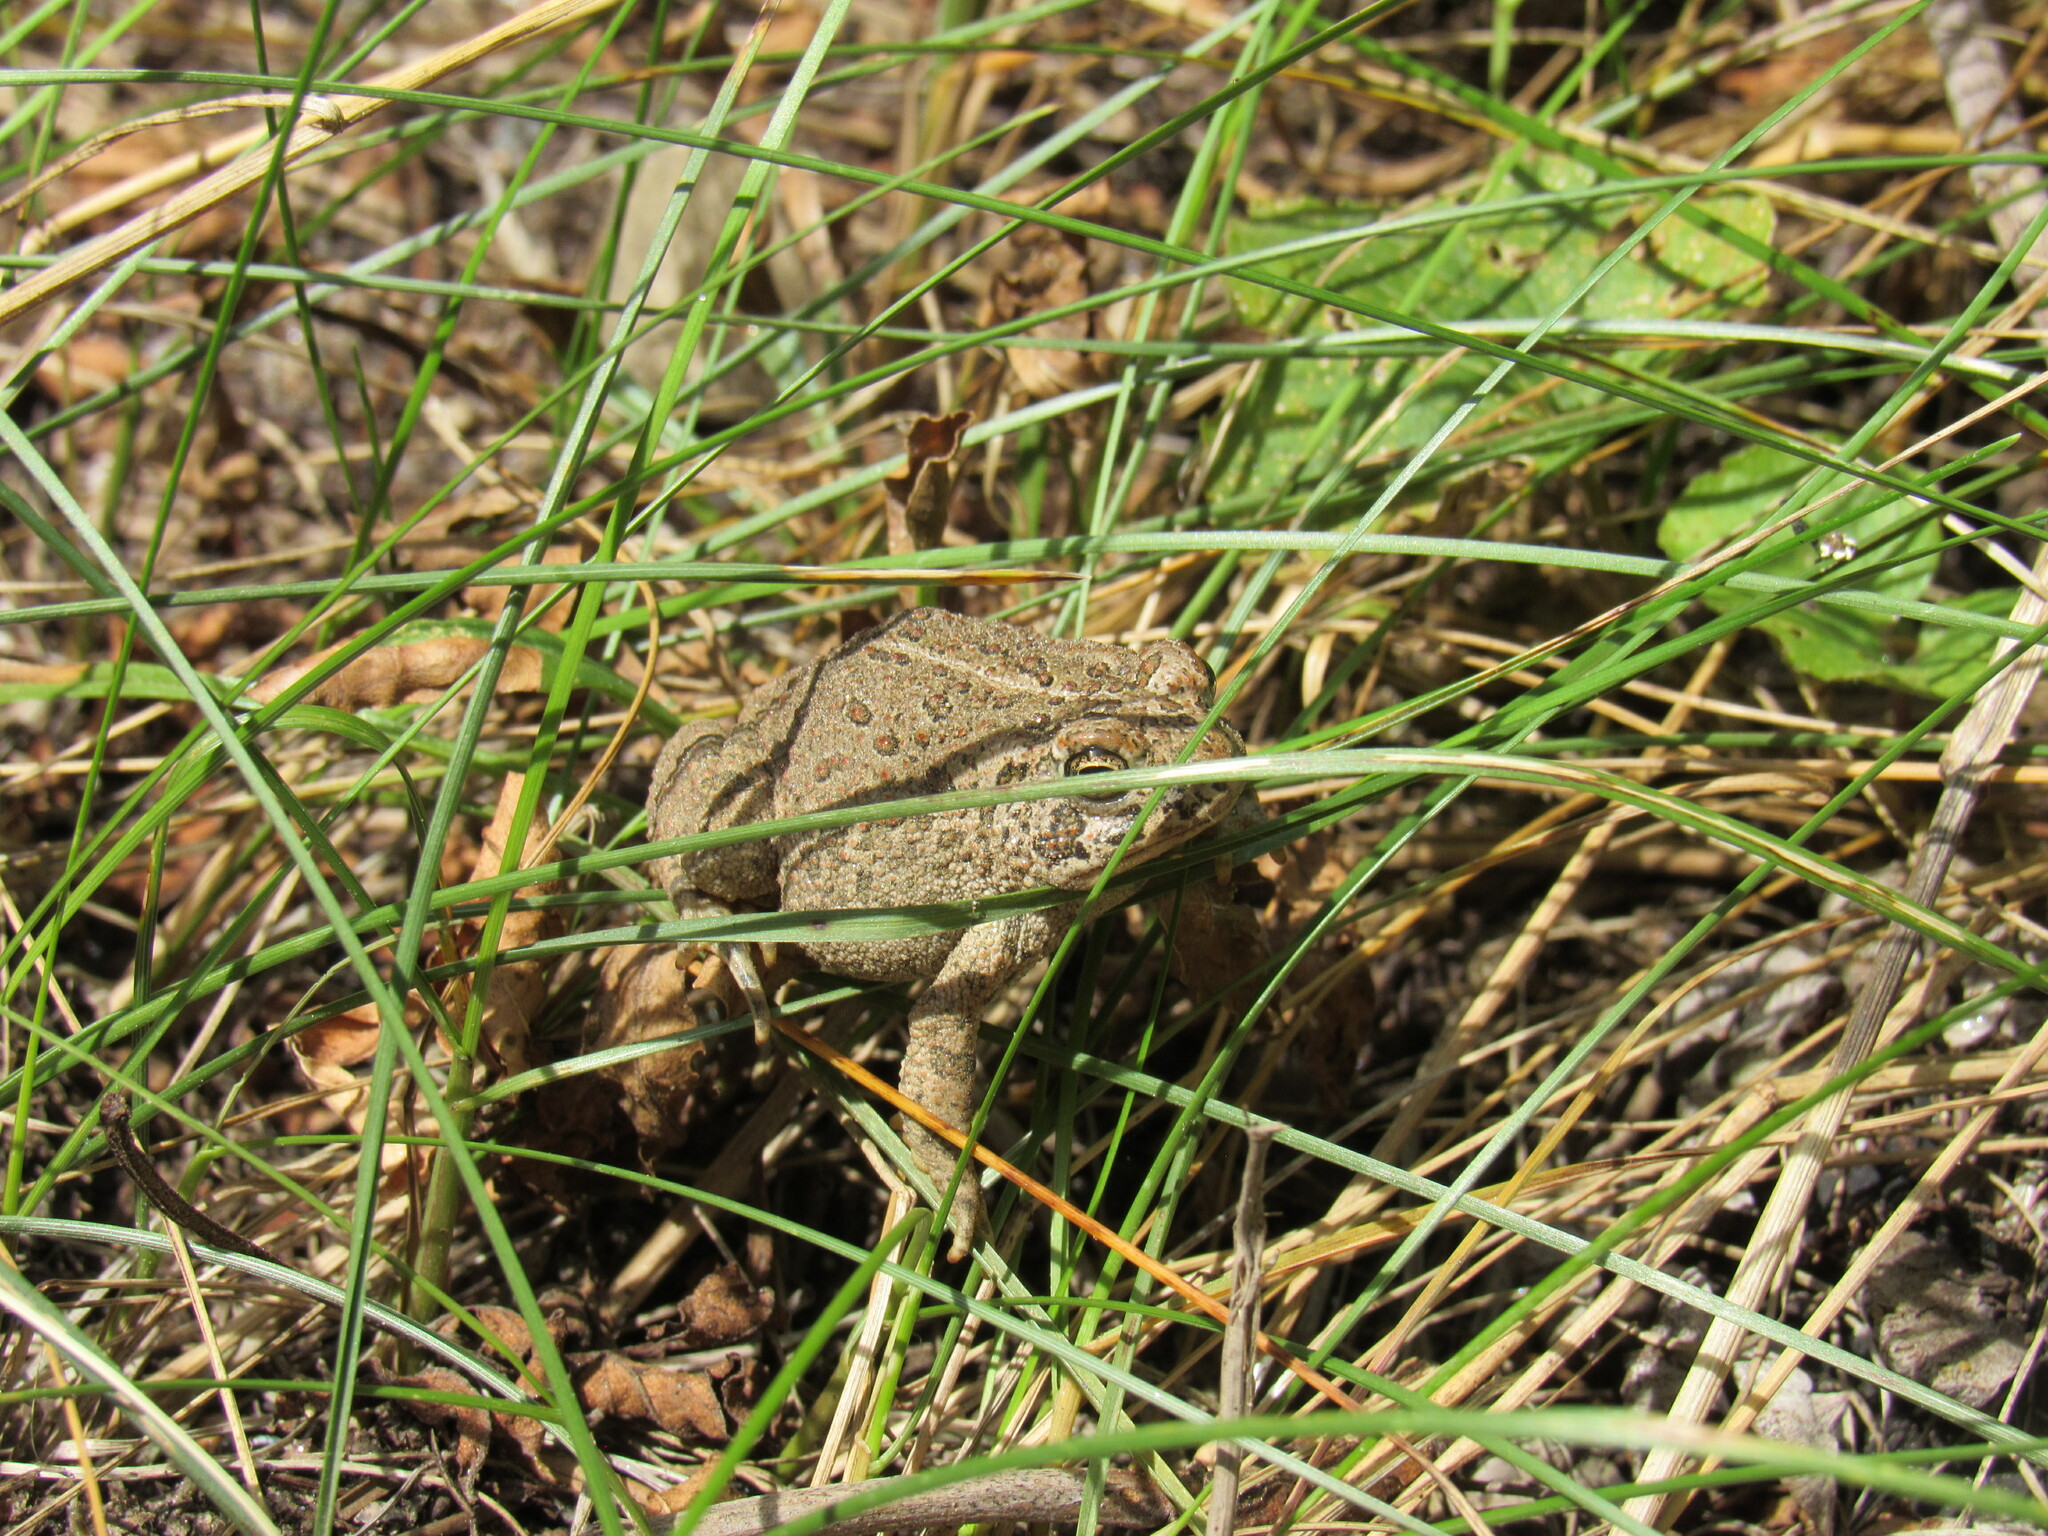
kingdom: Animalia
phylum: Chordata
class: Amphibia
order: Anura
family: Bufonidae
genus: Anaxyrus
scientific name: Anaxyrus woodhousii
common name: Woodhouse's toad
